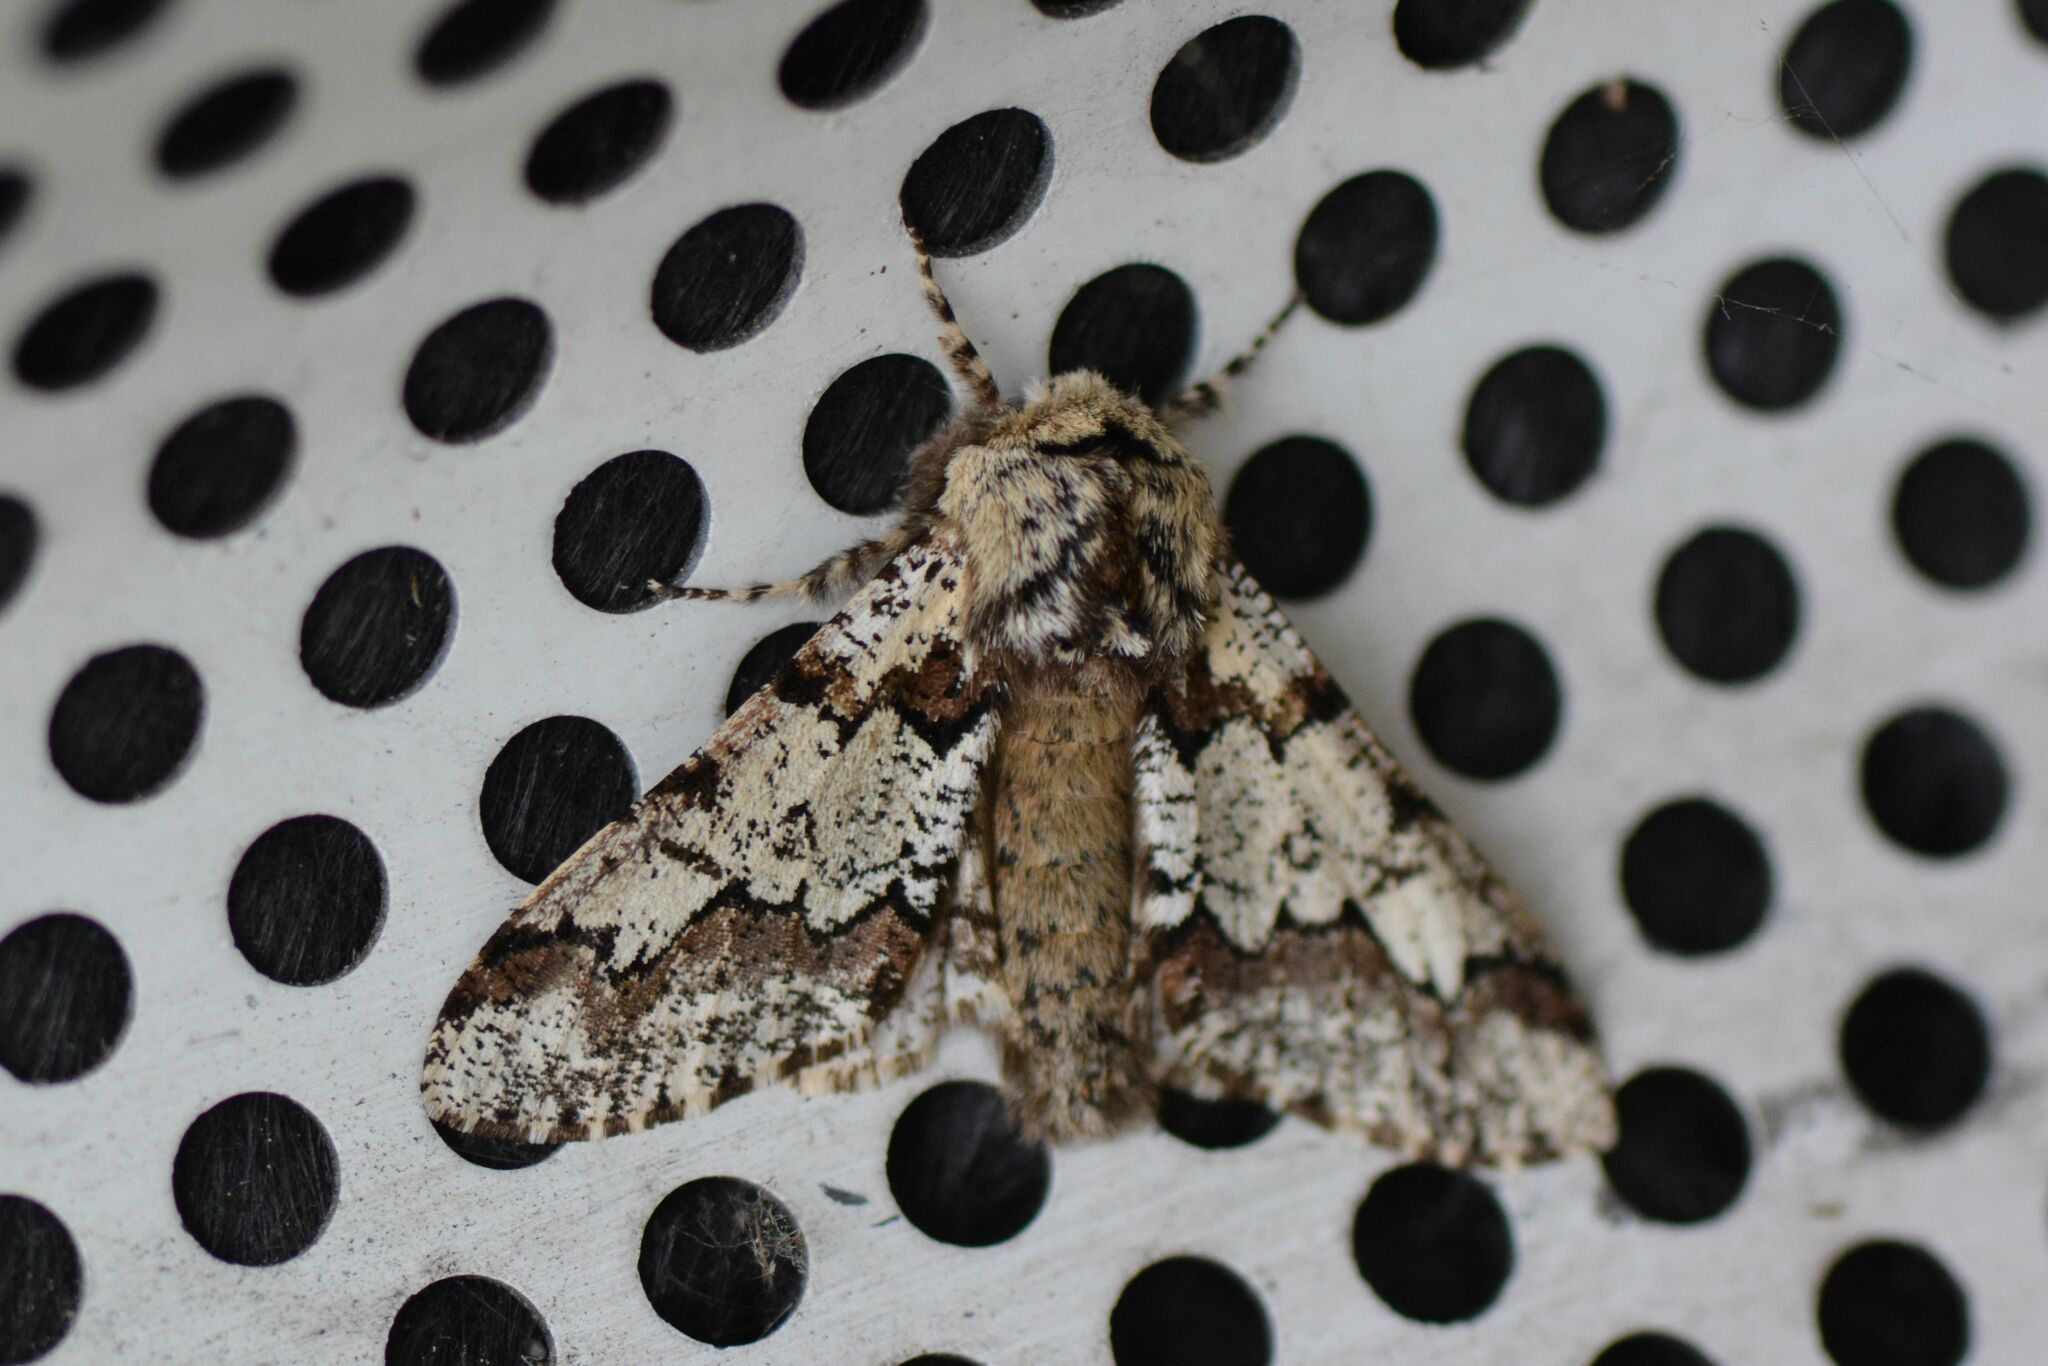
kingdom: Animalia
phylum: Arthropoda
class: Insecta
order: Lepidoptera
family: Geometridae
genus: Biston
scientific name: Biston strataria
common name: Oak beauty
